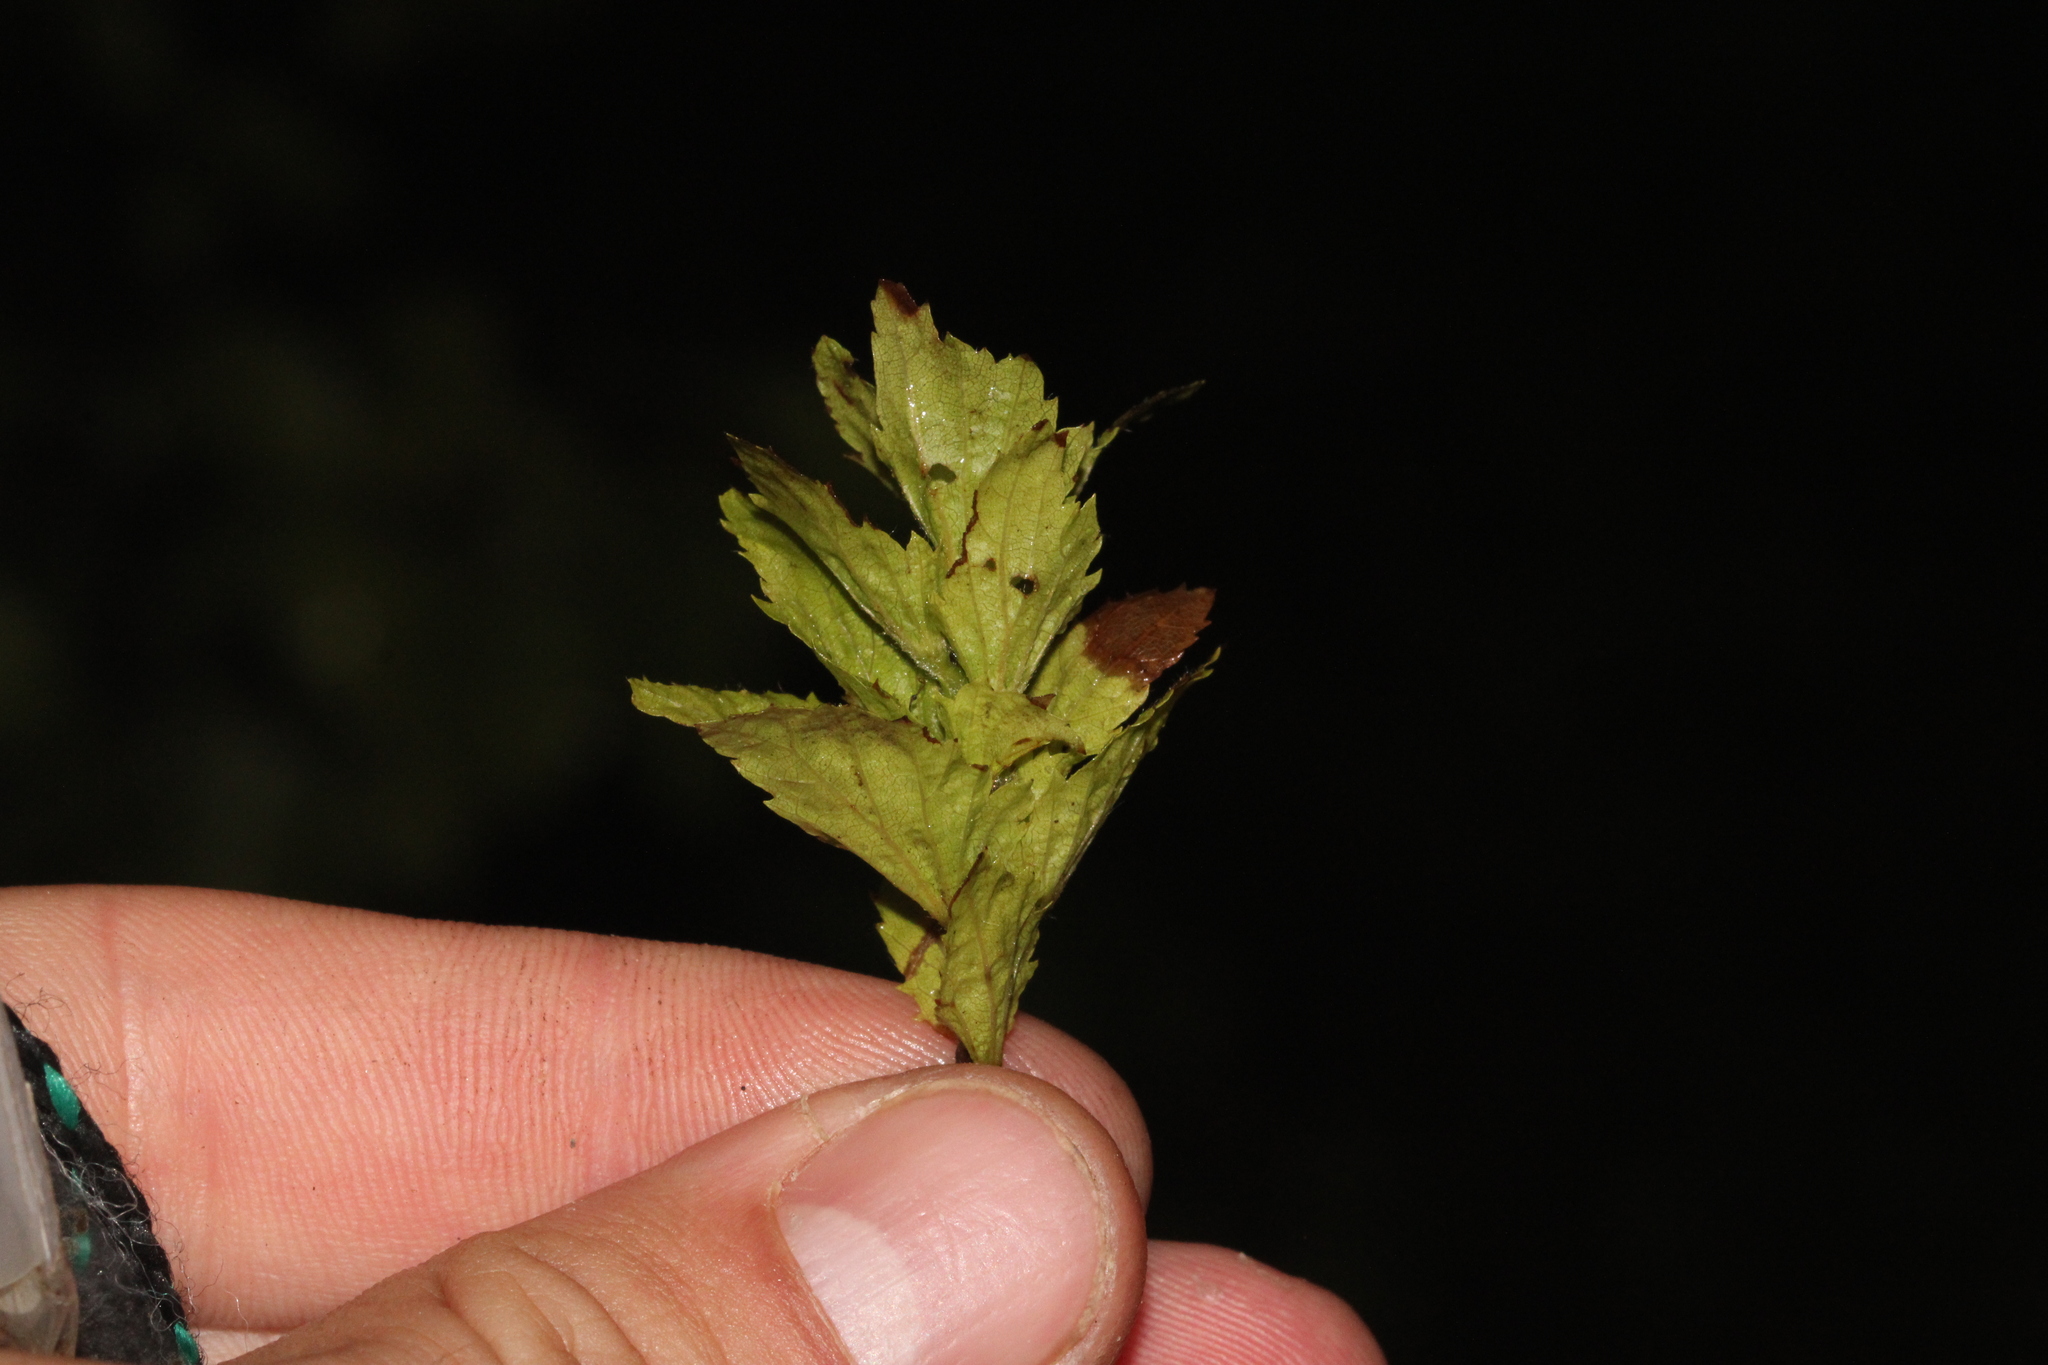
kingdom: Plantae
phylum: Tracheophyta
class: Magnoliopsida
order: Fagales
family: Betulaceae
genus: Carpinus
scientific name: Carpinus orientalis
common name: Eastern hornbeam
